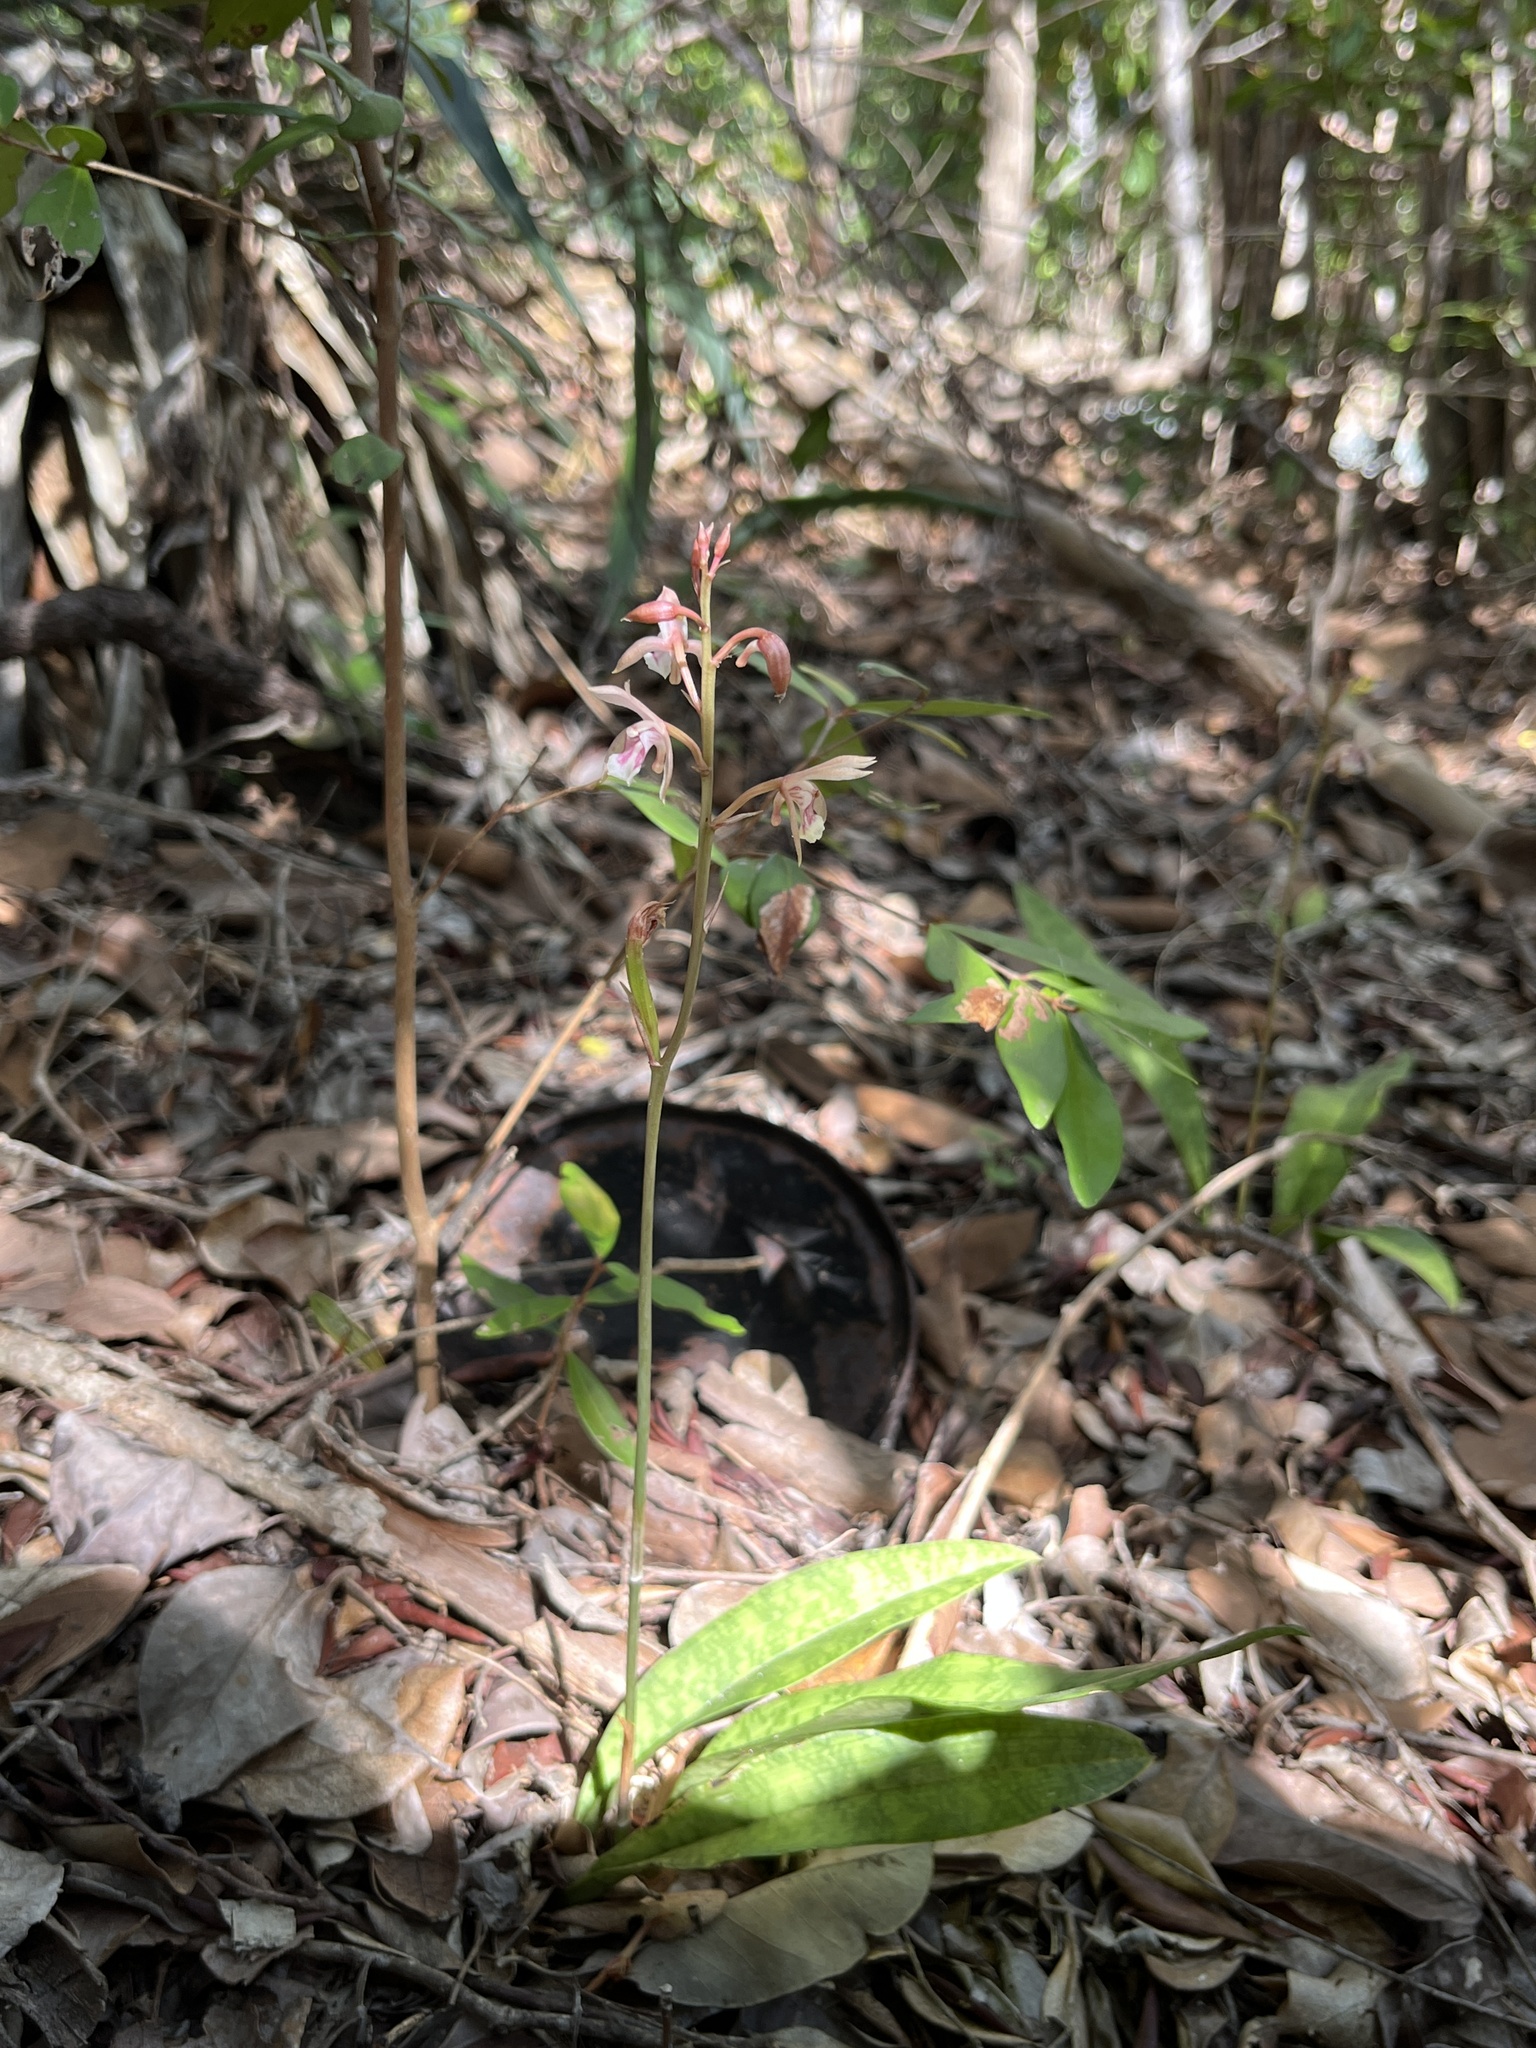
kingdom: Plantae
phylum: Tracheophyta
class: Liliopsida
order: Asparagales
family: Orchidaceae
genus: Eulophia
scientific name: Eulophia maculata
